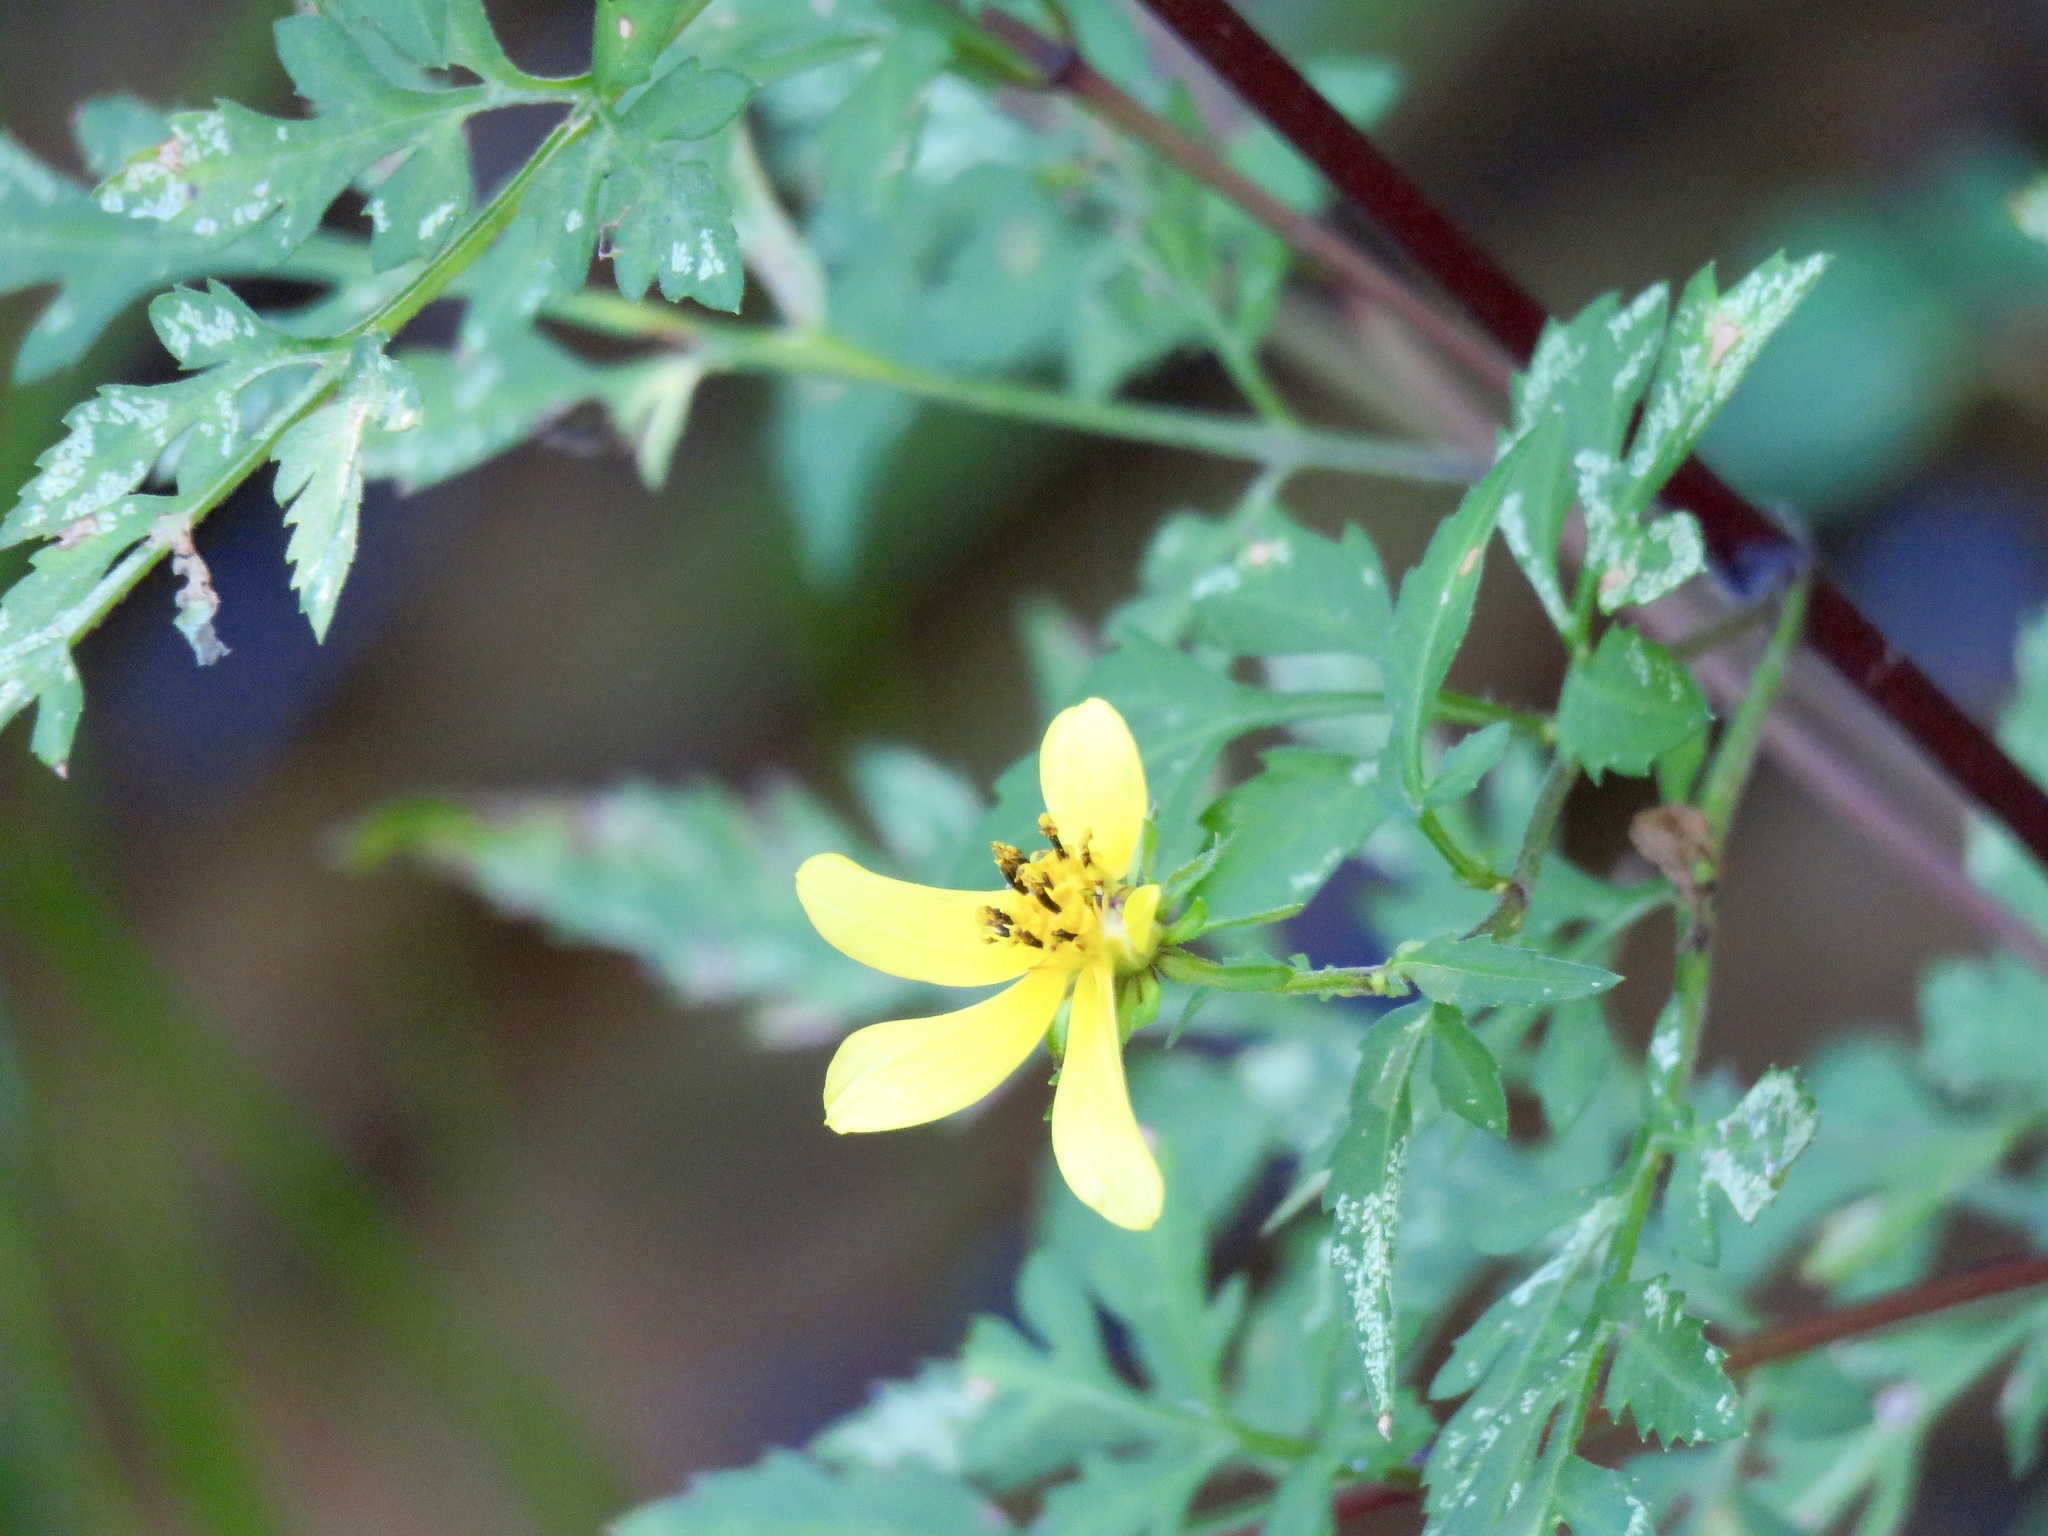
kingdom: Plantae
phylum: Tracheophyta
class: Magnoliopsida
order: Asterales
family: Asteraceae
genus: Bidens
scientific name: Bidens aristosa
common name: Western tickseed
